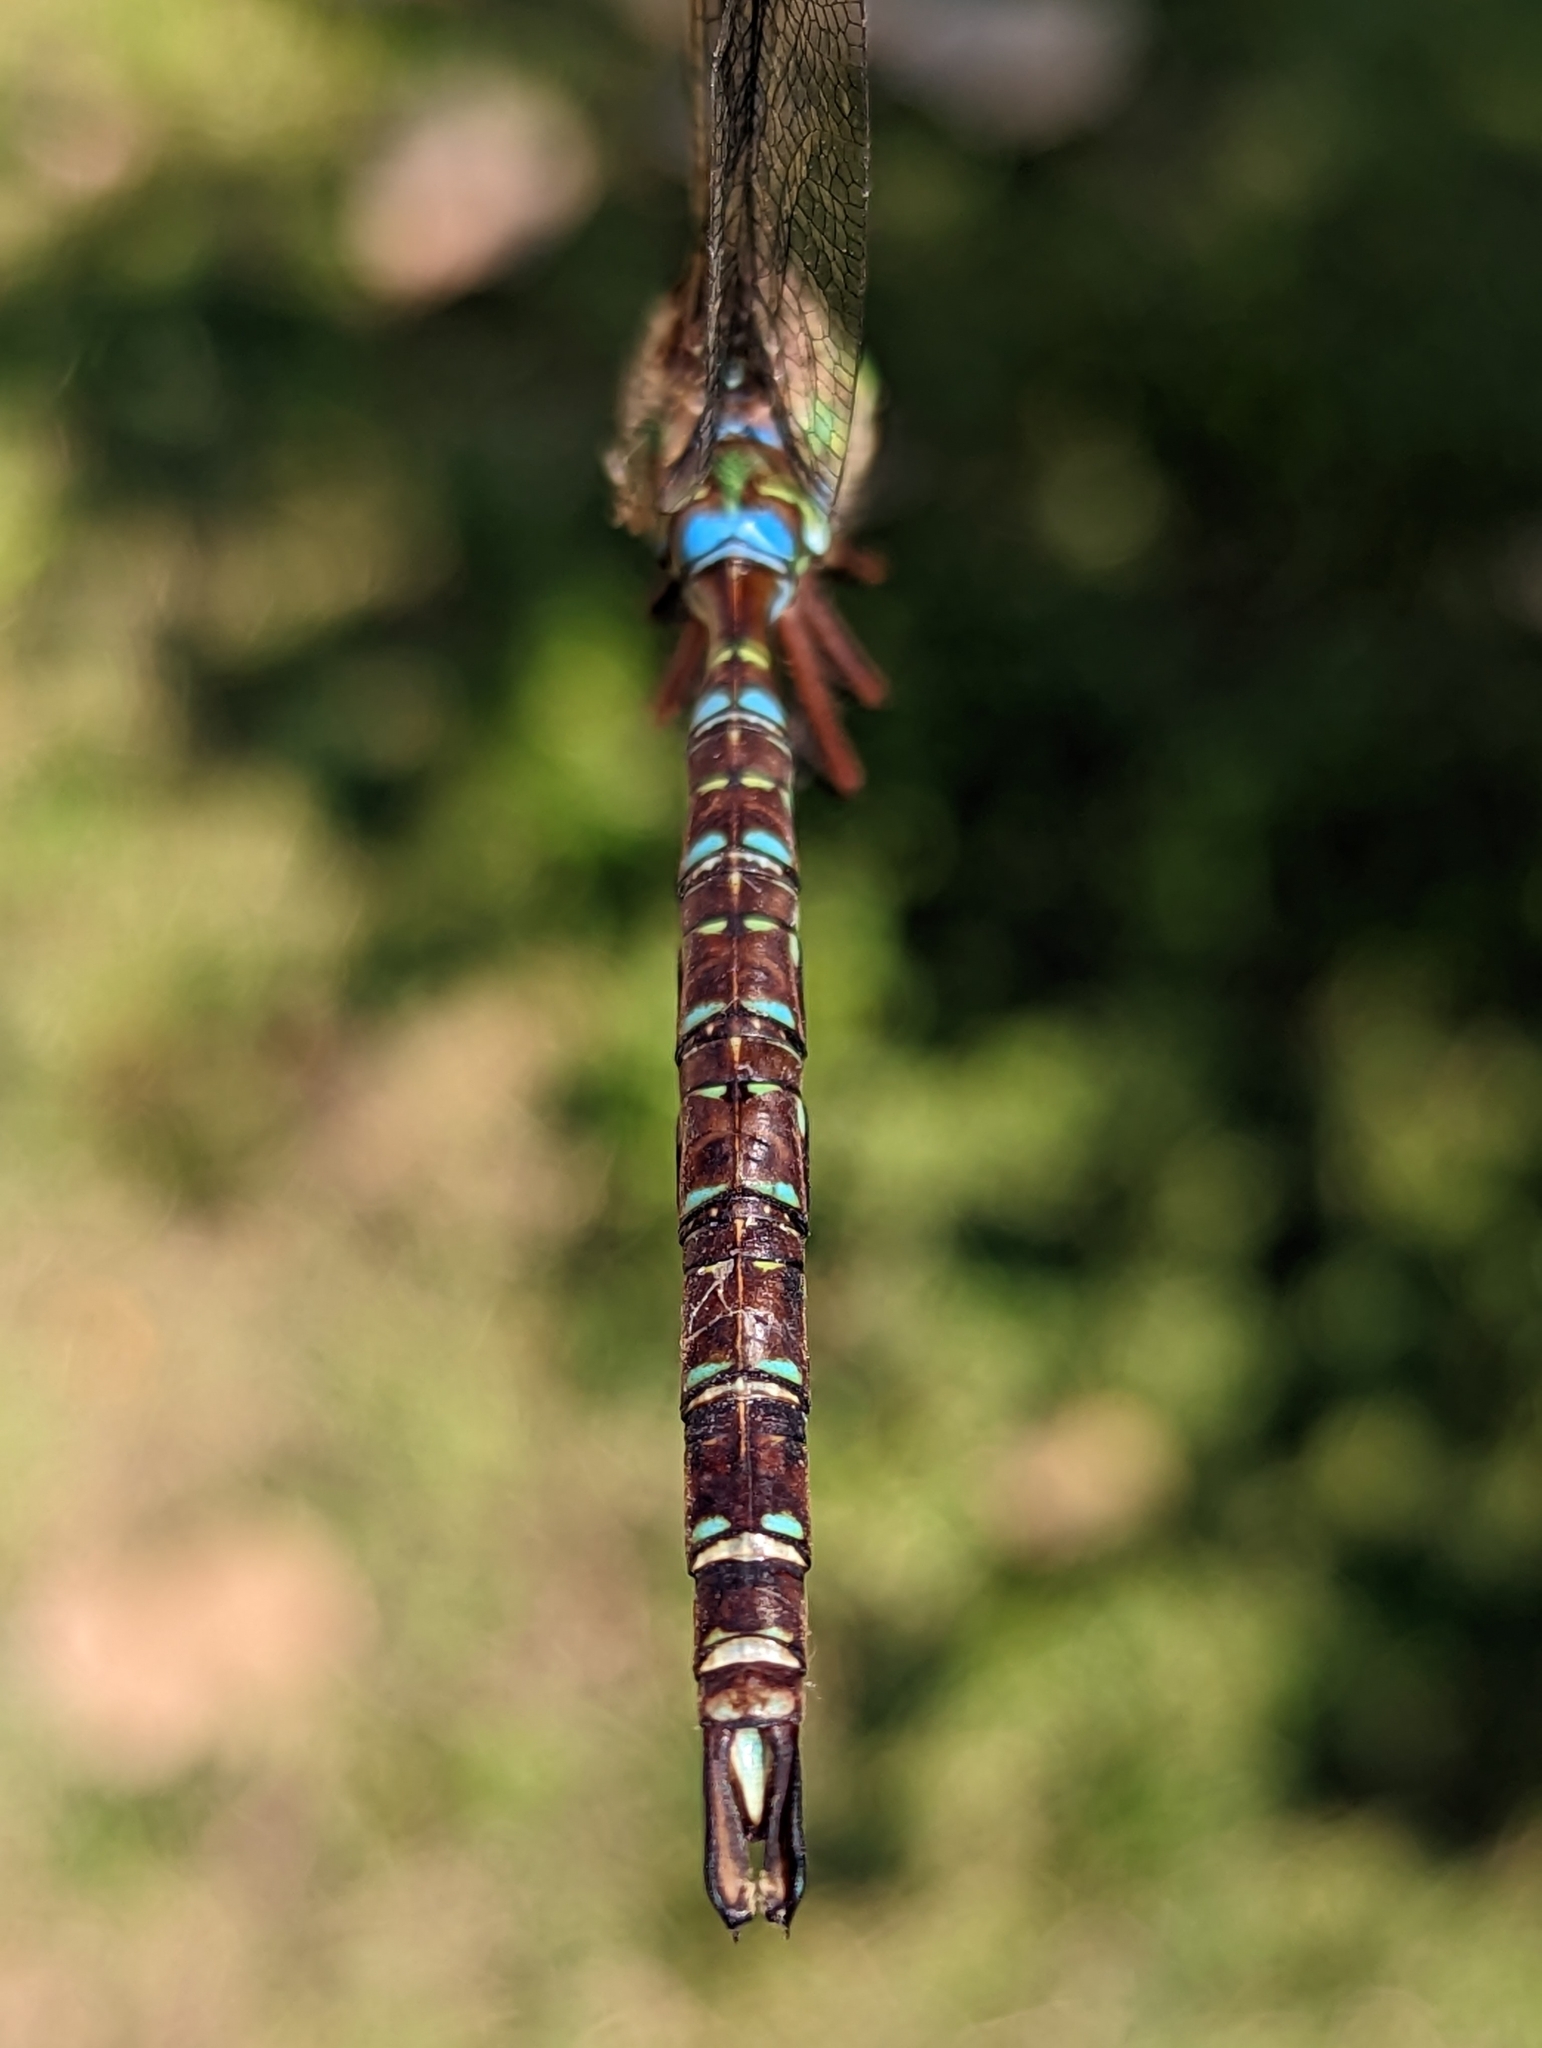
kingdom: Animalia
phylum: Arthropoda
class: Insecta
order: Odonata
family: Aeshnidae
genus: Aeshna
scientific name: Aeshna umbrosa
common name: Shadow darner
